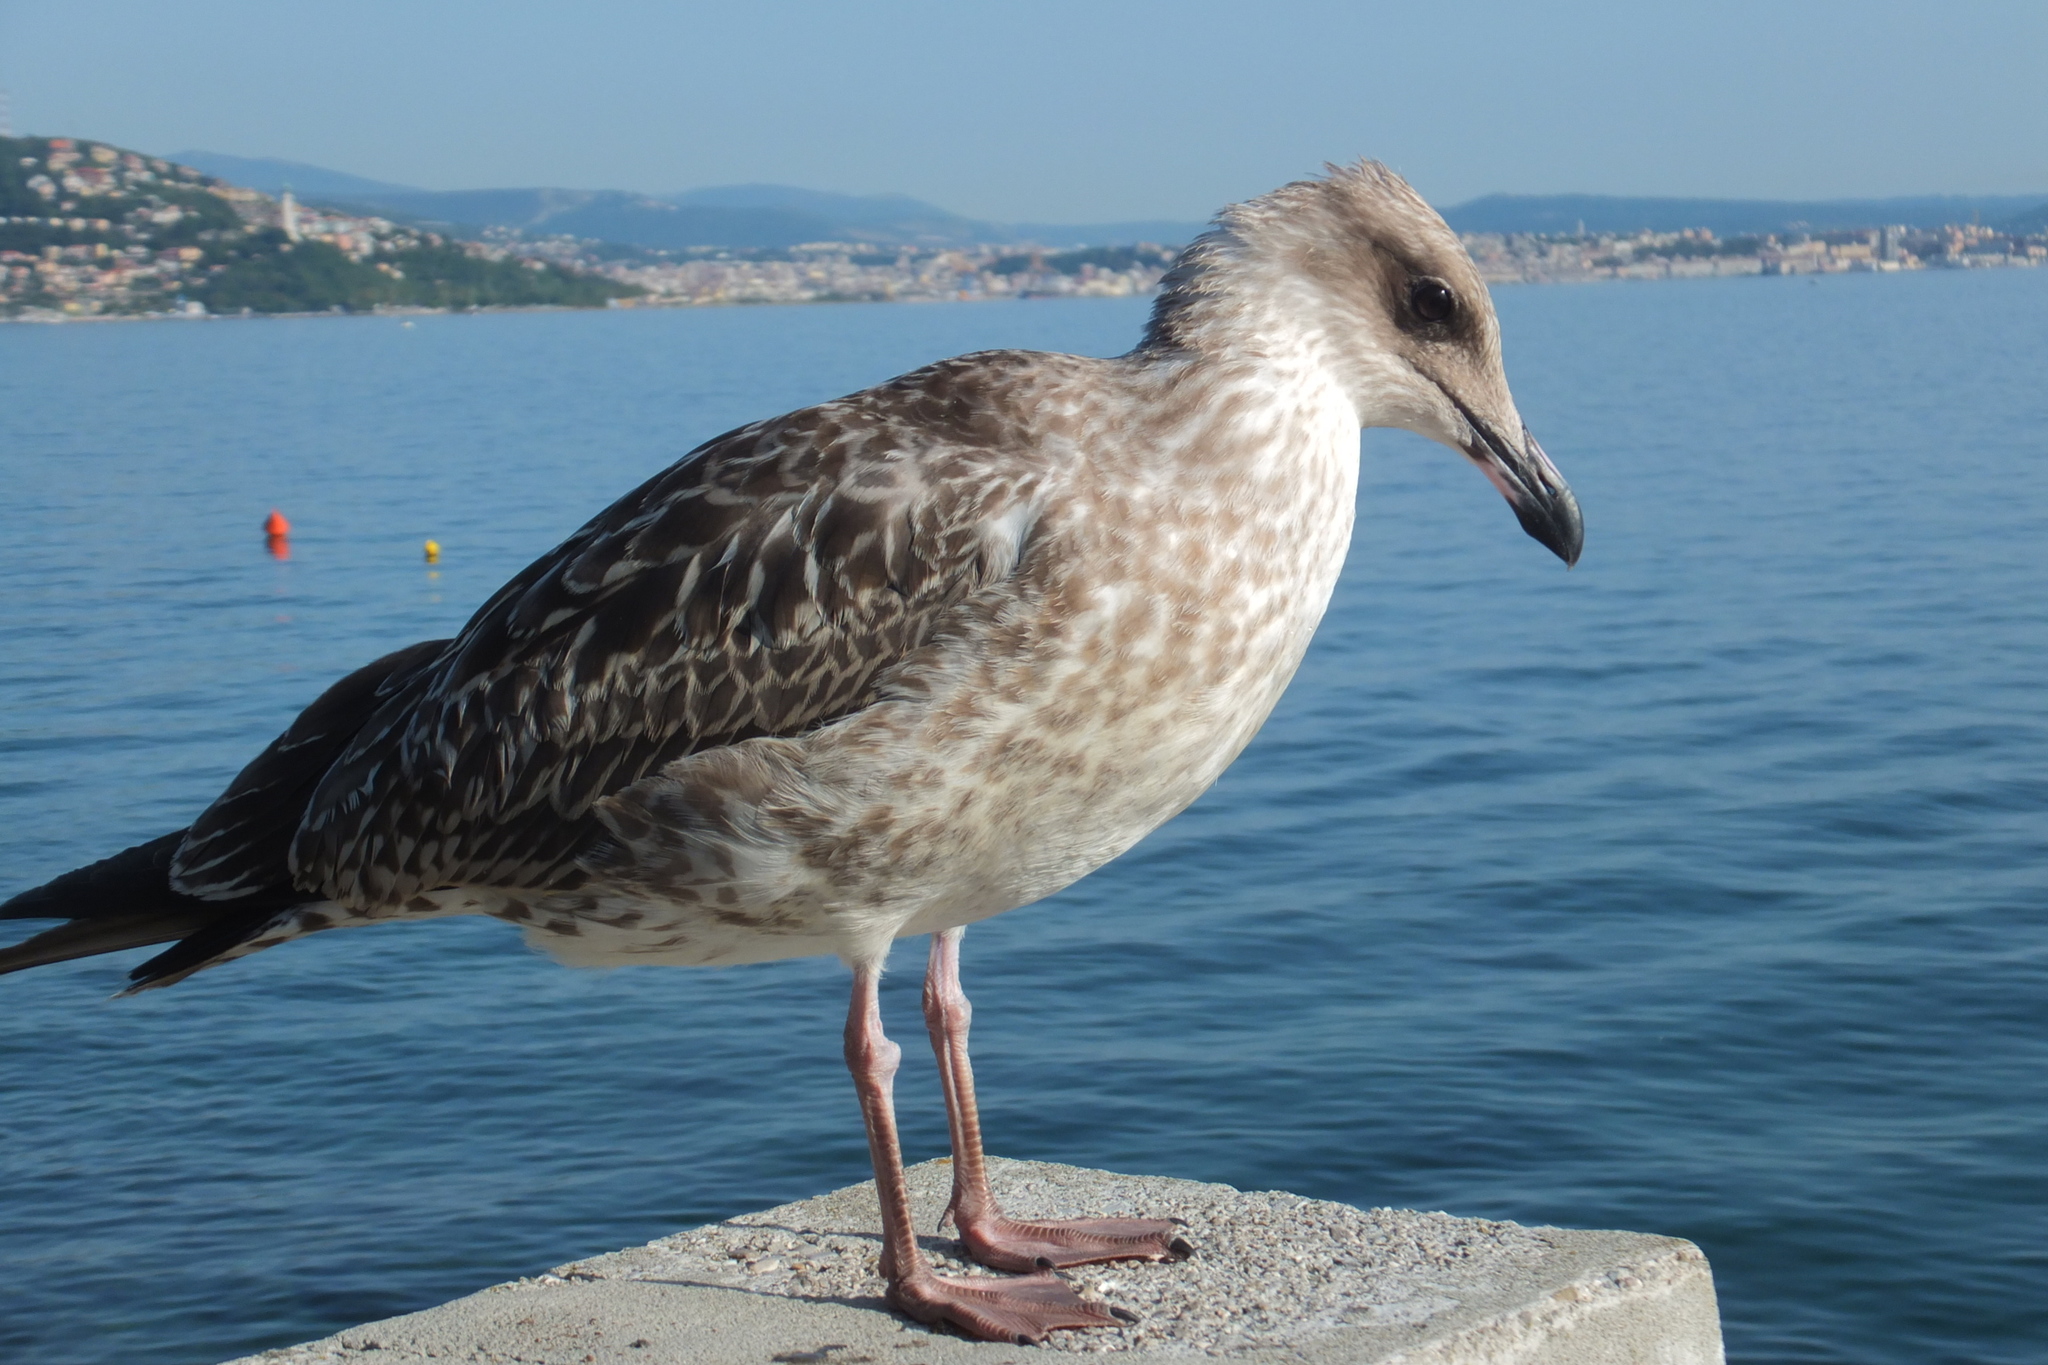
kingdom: Animalia
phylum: Chordata
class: Aves
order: Charadriiformes
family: Laridae
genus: Larus
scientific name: Larus michahellis
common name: Yellow-legged gull
